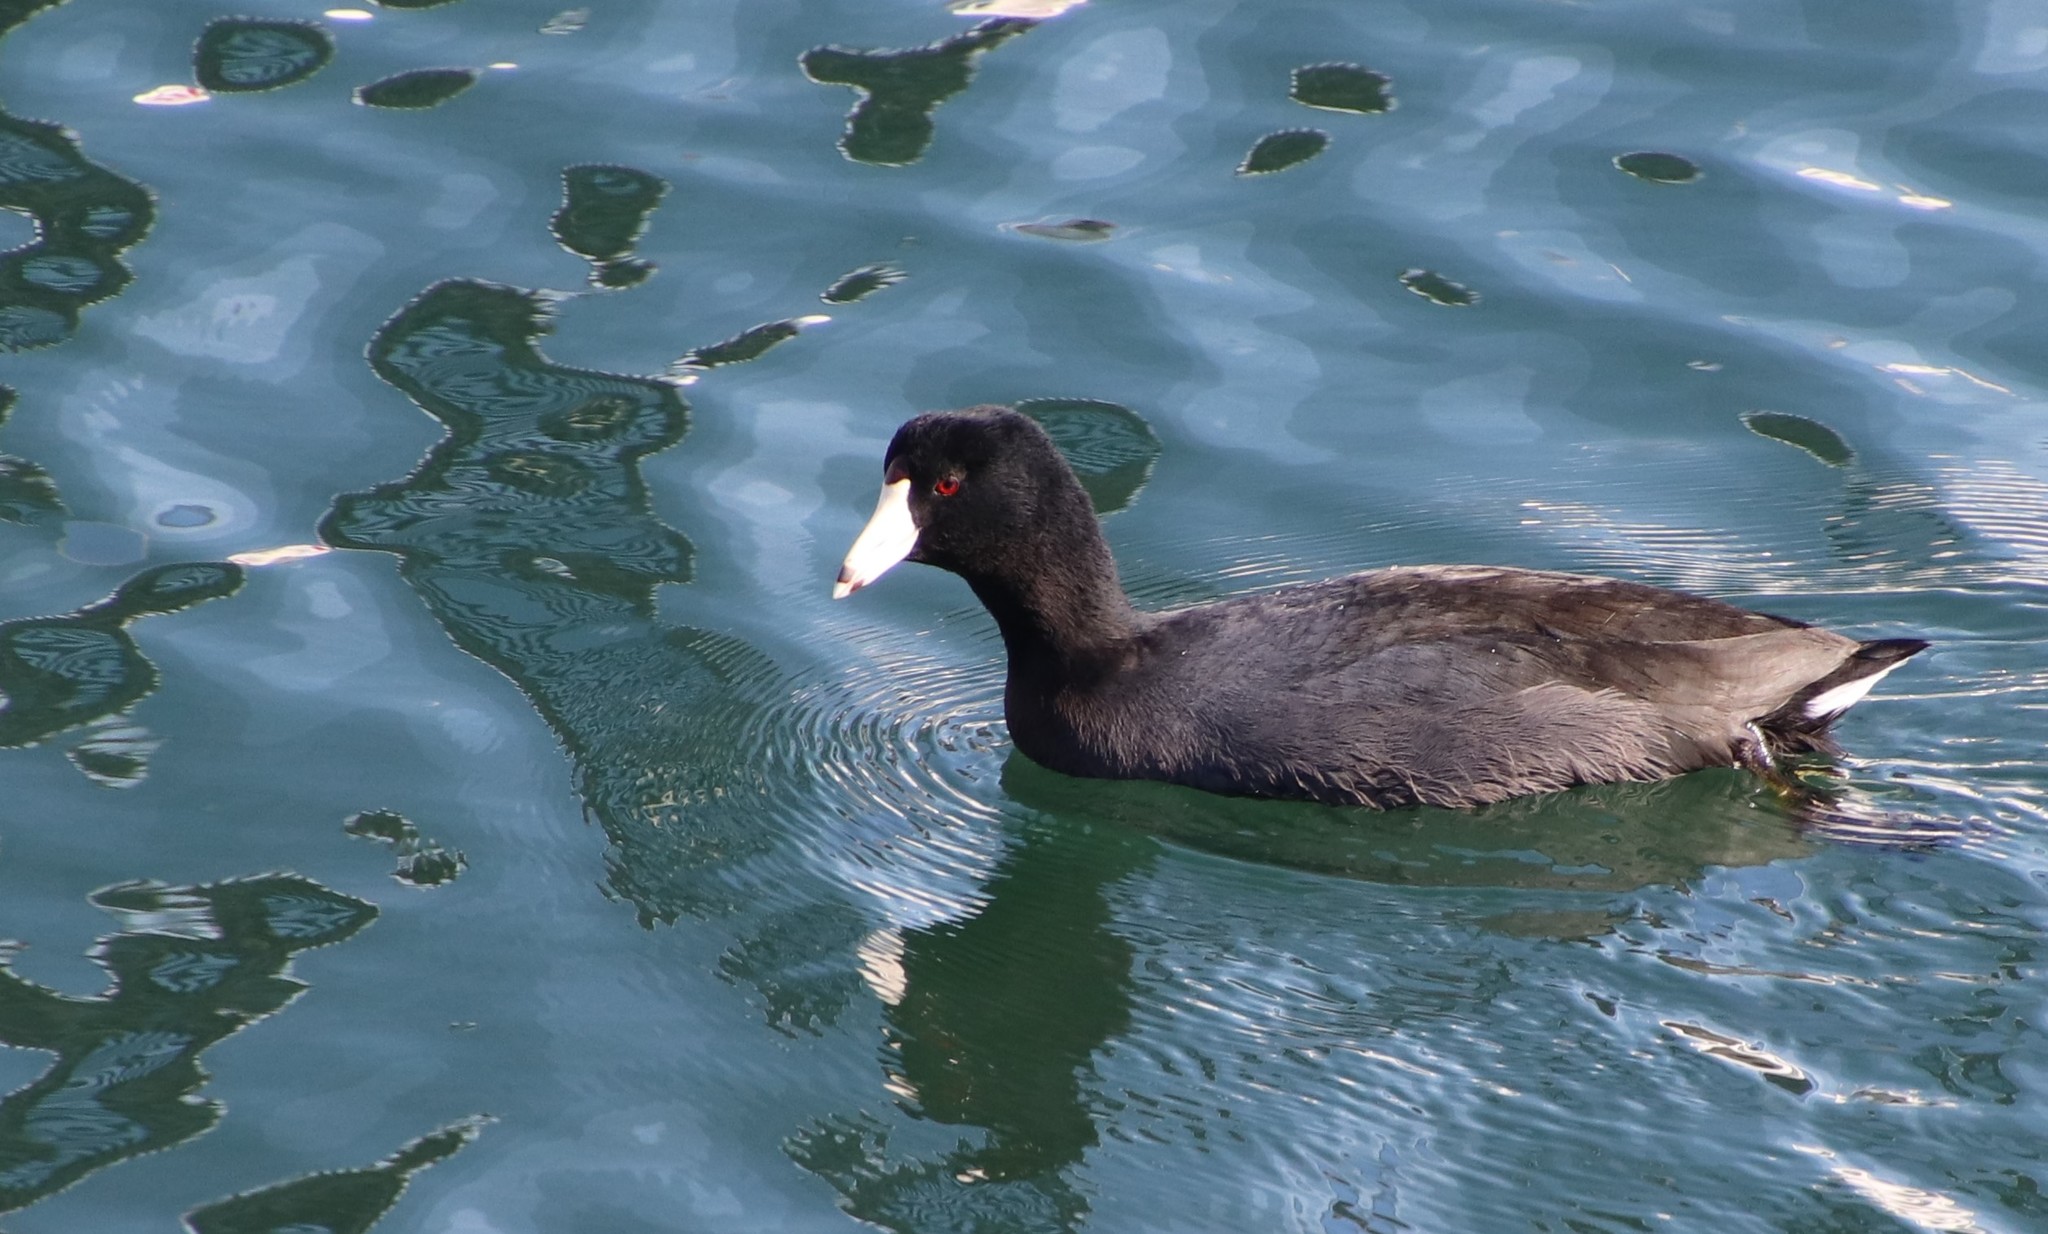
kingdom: Animalia
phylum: Chordata
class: Aves
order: Gruiformes
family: Rallidae
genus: Fulica
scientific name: Fulica americana
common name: American coot
